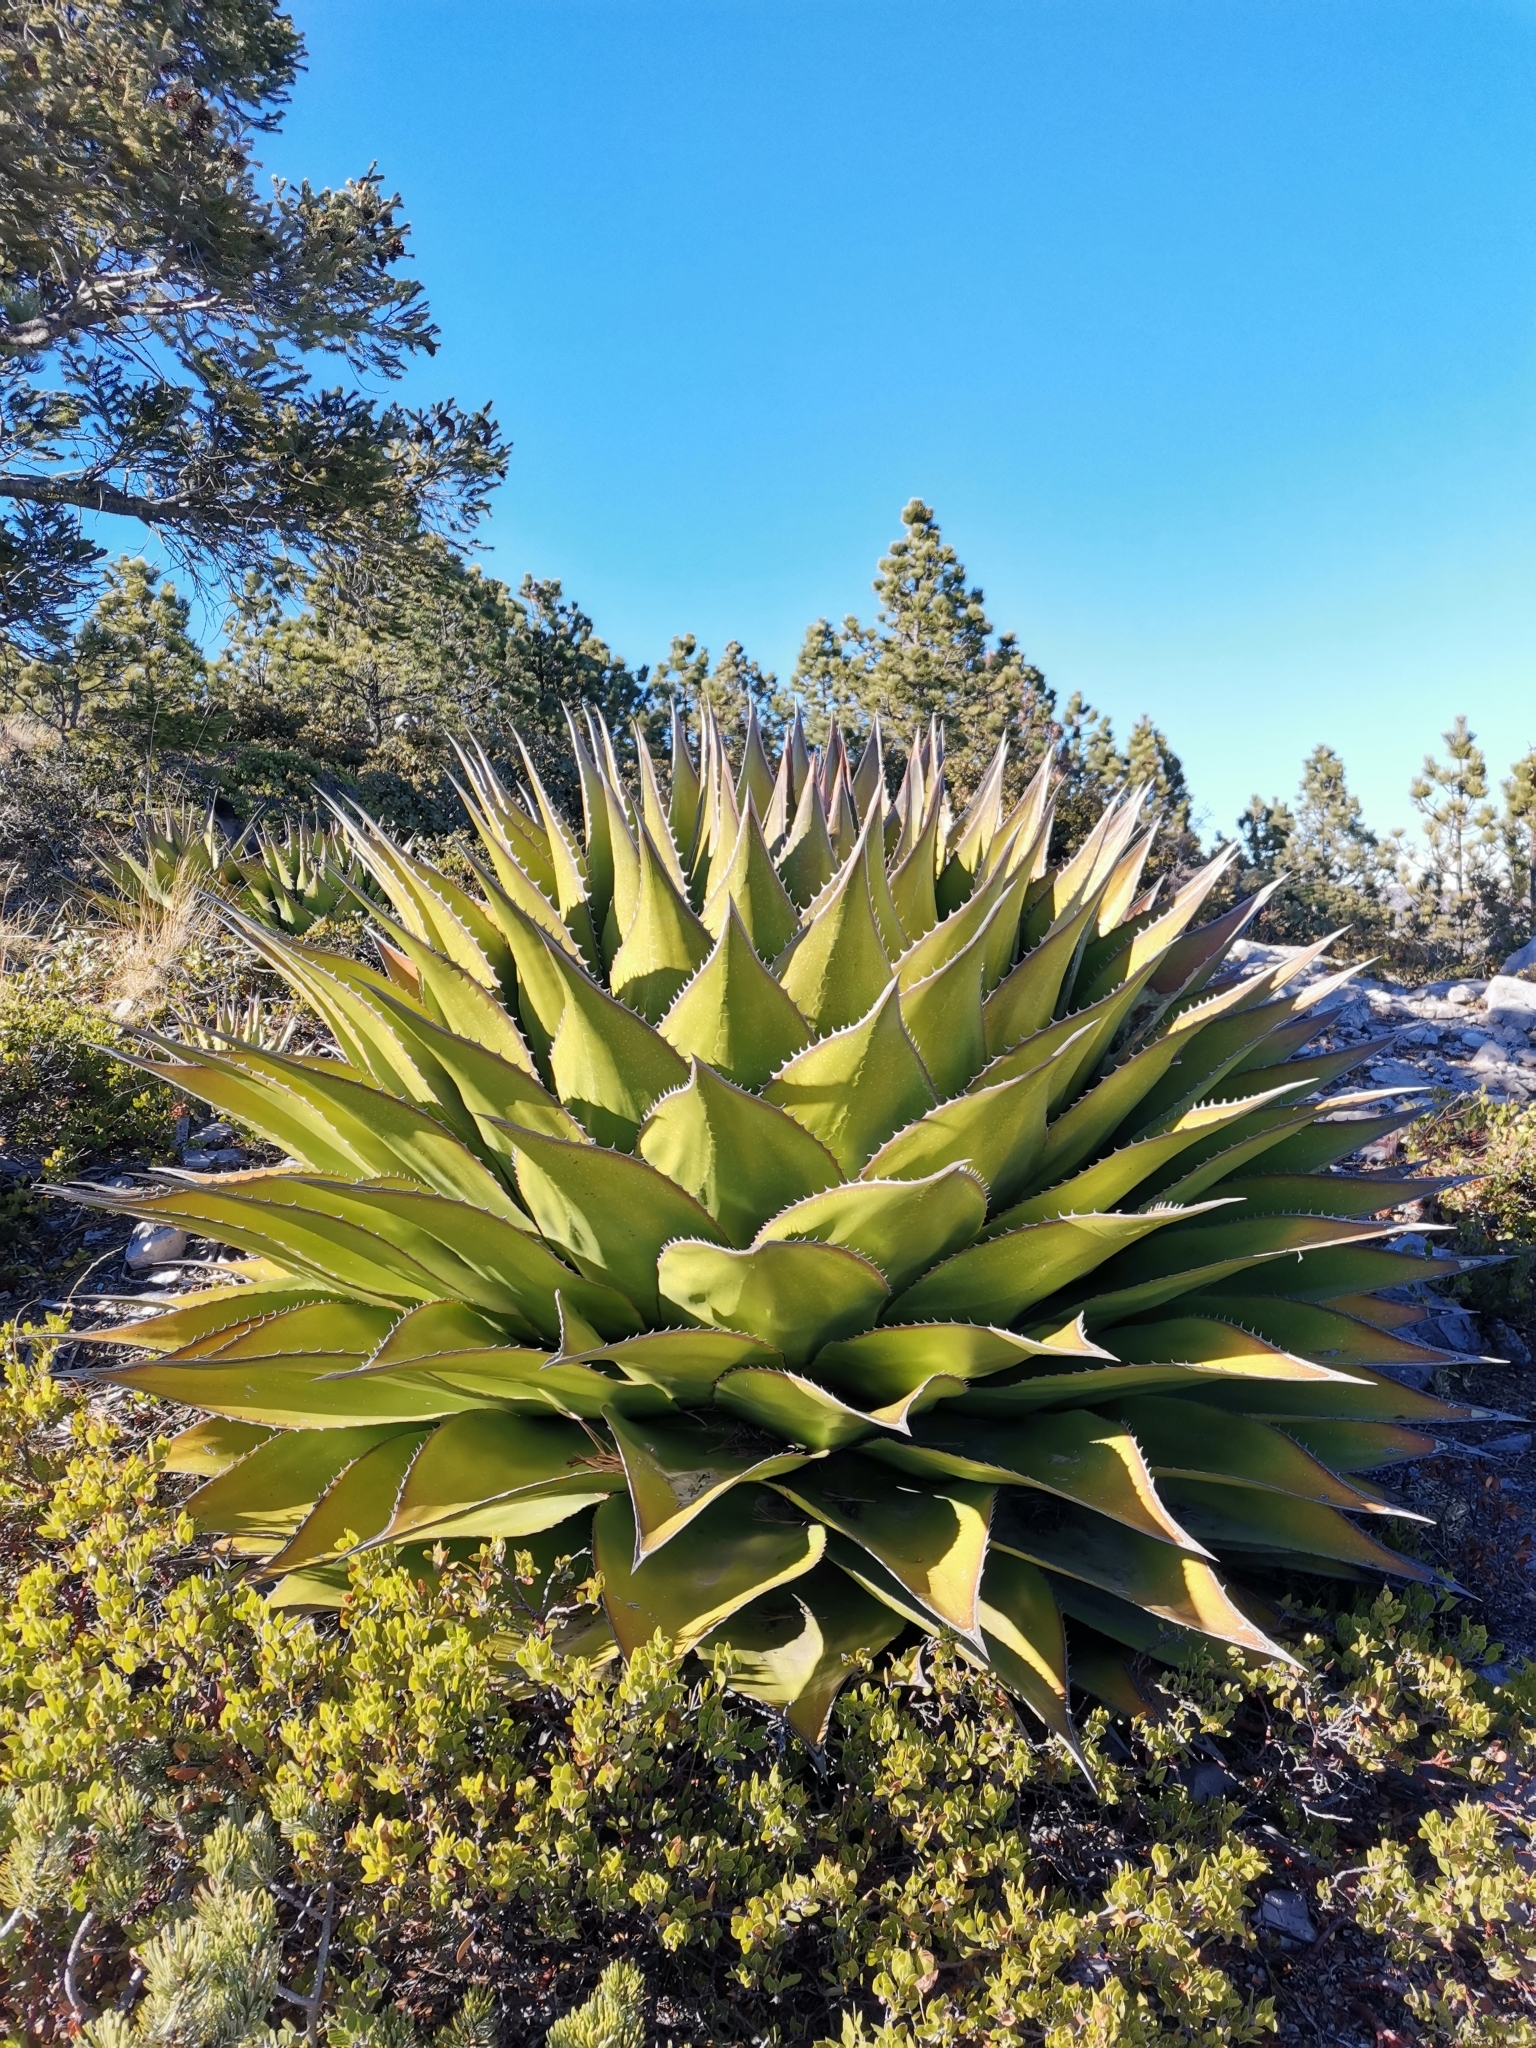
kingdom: Plantae
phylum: Tracheophyta
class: Liliopsida
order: Asparagales
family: Asparagaceae
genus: Agave
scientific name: Agave montana
